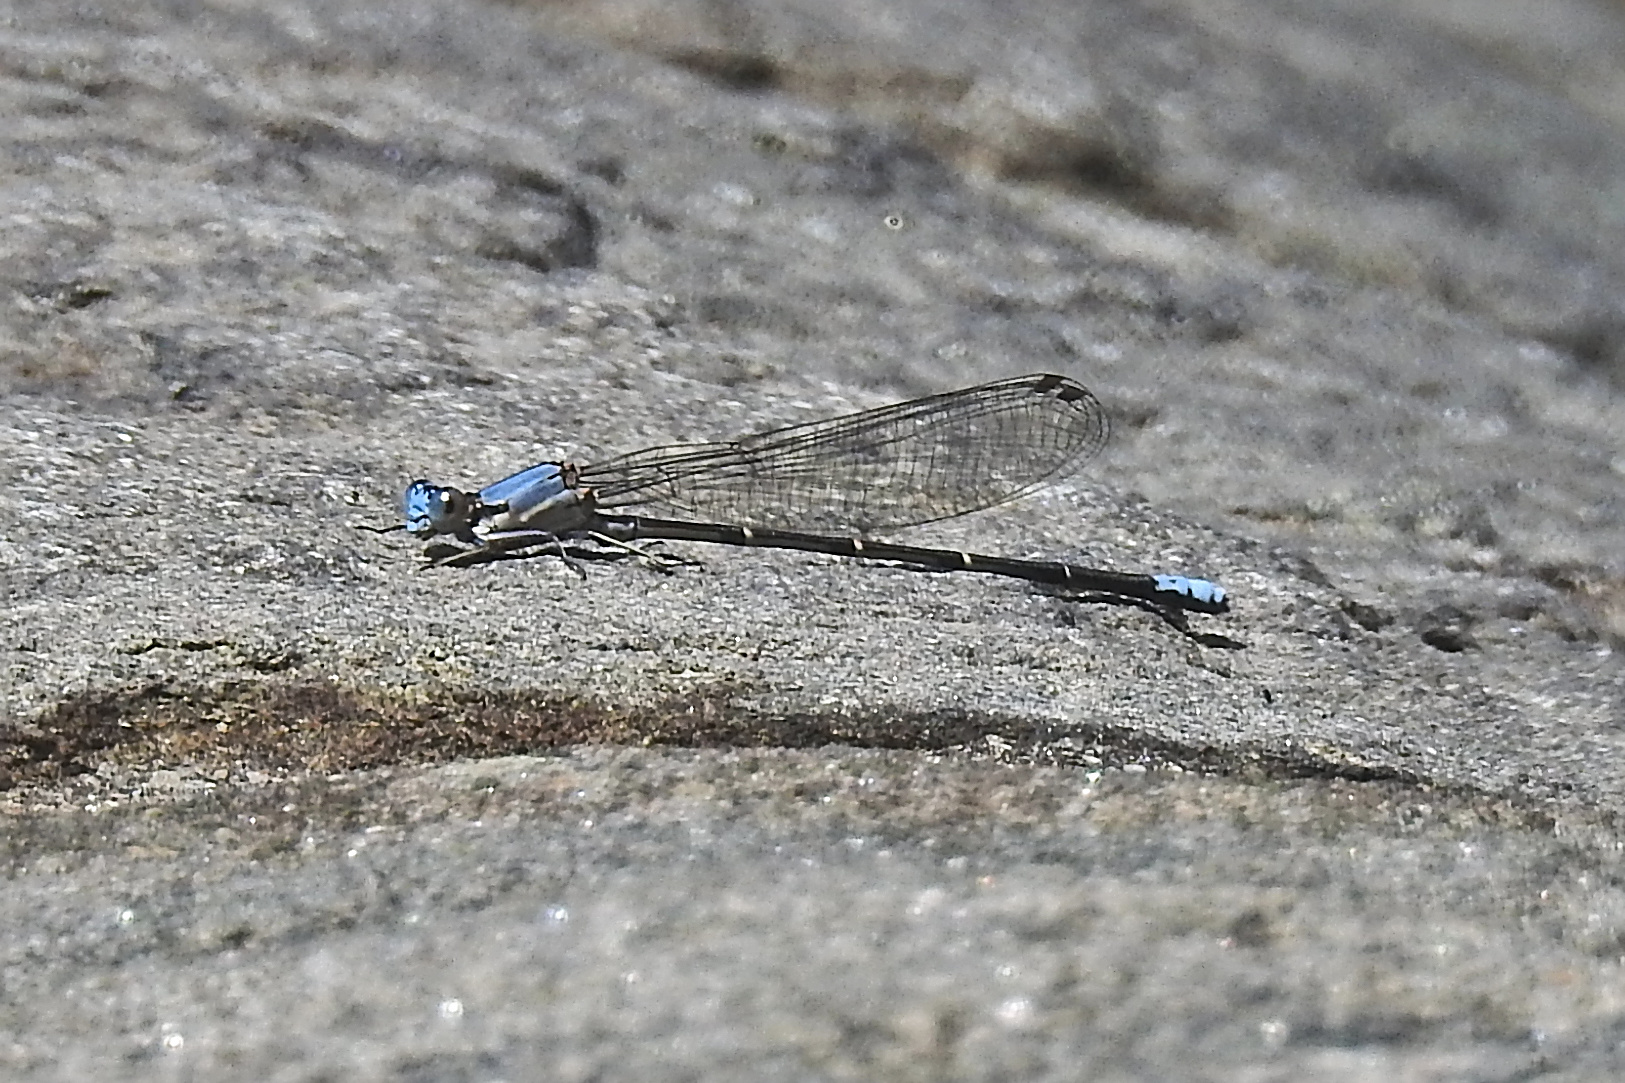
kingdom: Animalia
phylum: Arthropoda
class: Insecta
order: Odonata
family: Coenagrionidae
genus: Argia
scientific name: Argia apicalis
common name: Blue-fronted dancer
